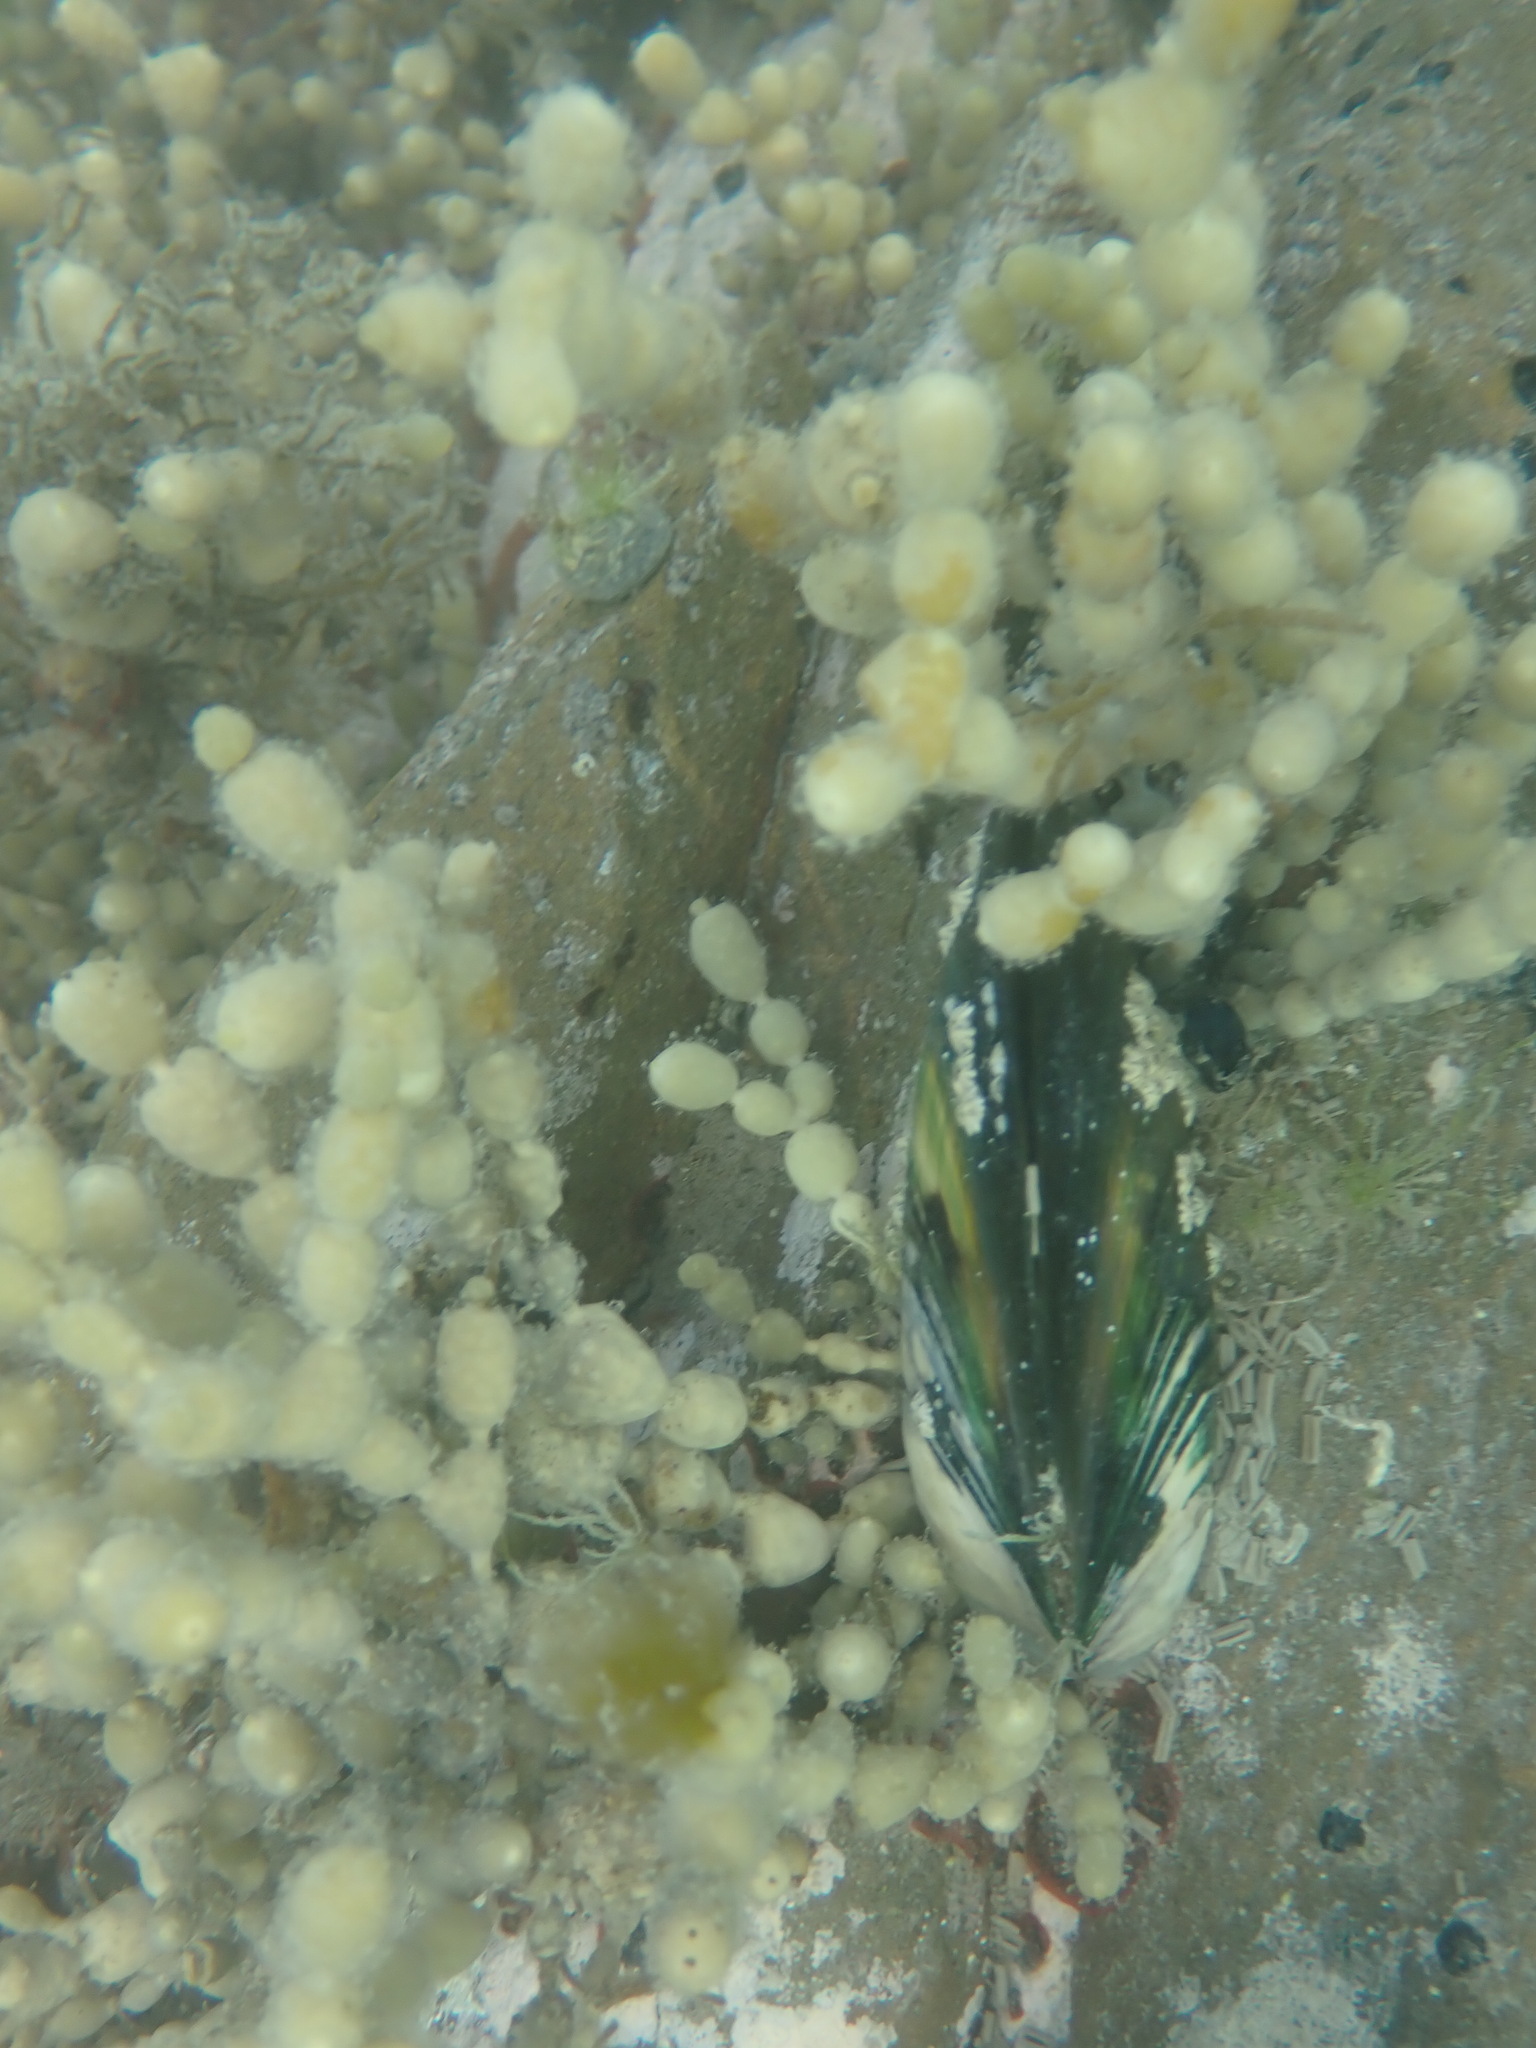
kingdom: Animalia
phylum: Mollusca
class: Bivalvia
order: Mytilida
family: Mytilidae
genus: Perna
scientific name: Perna canaliculus
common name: New zealand greenshelltm
